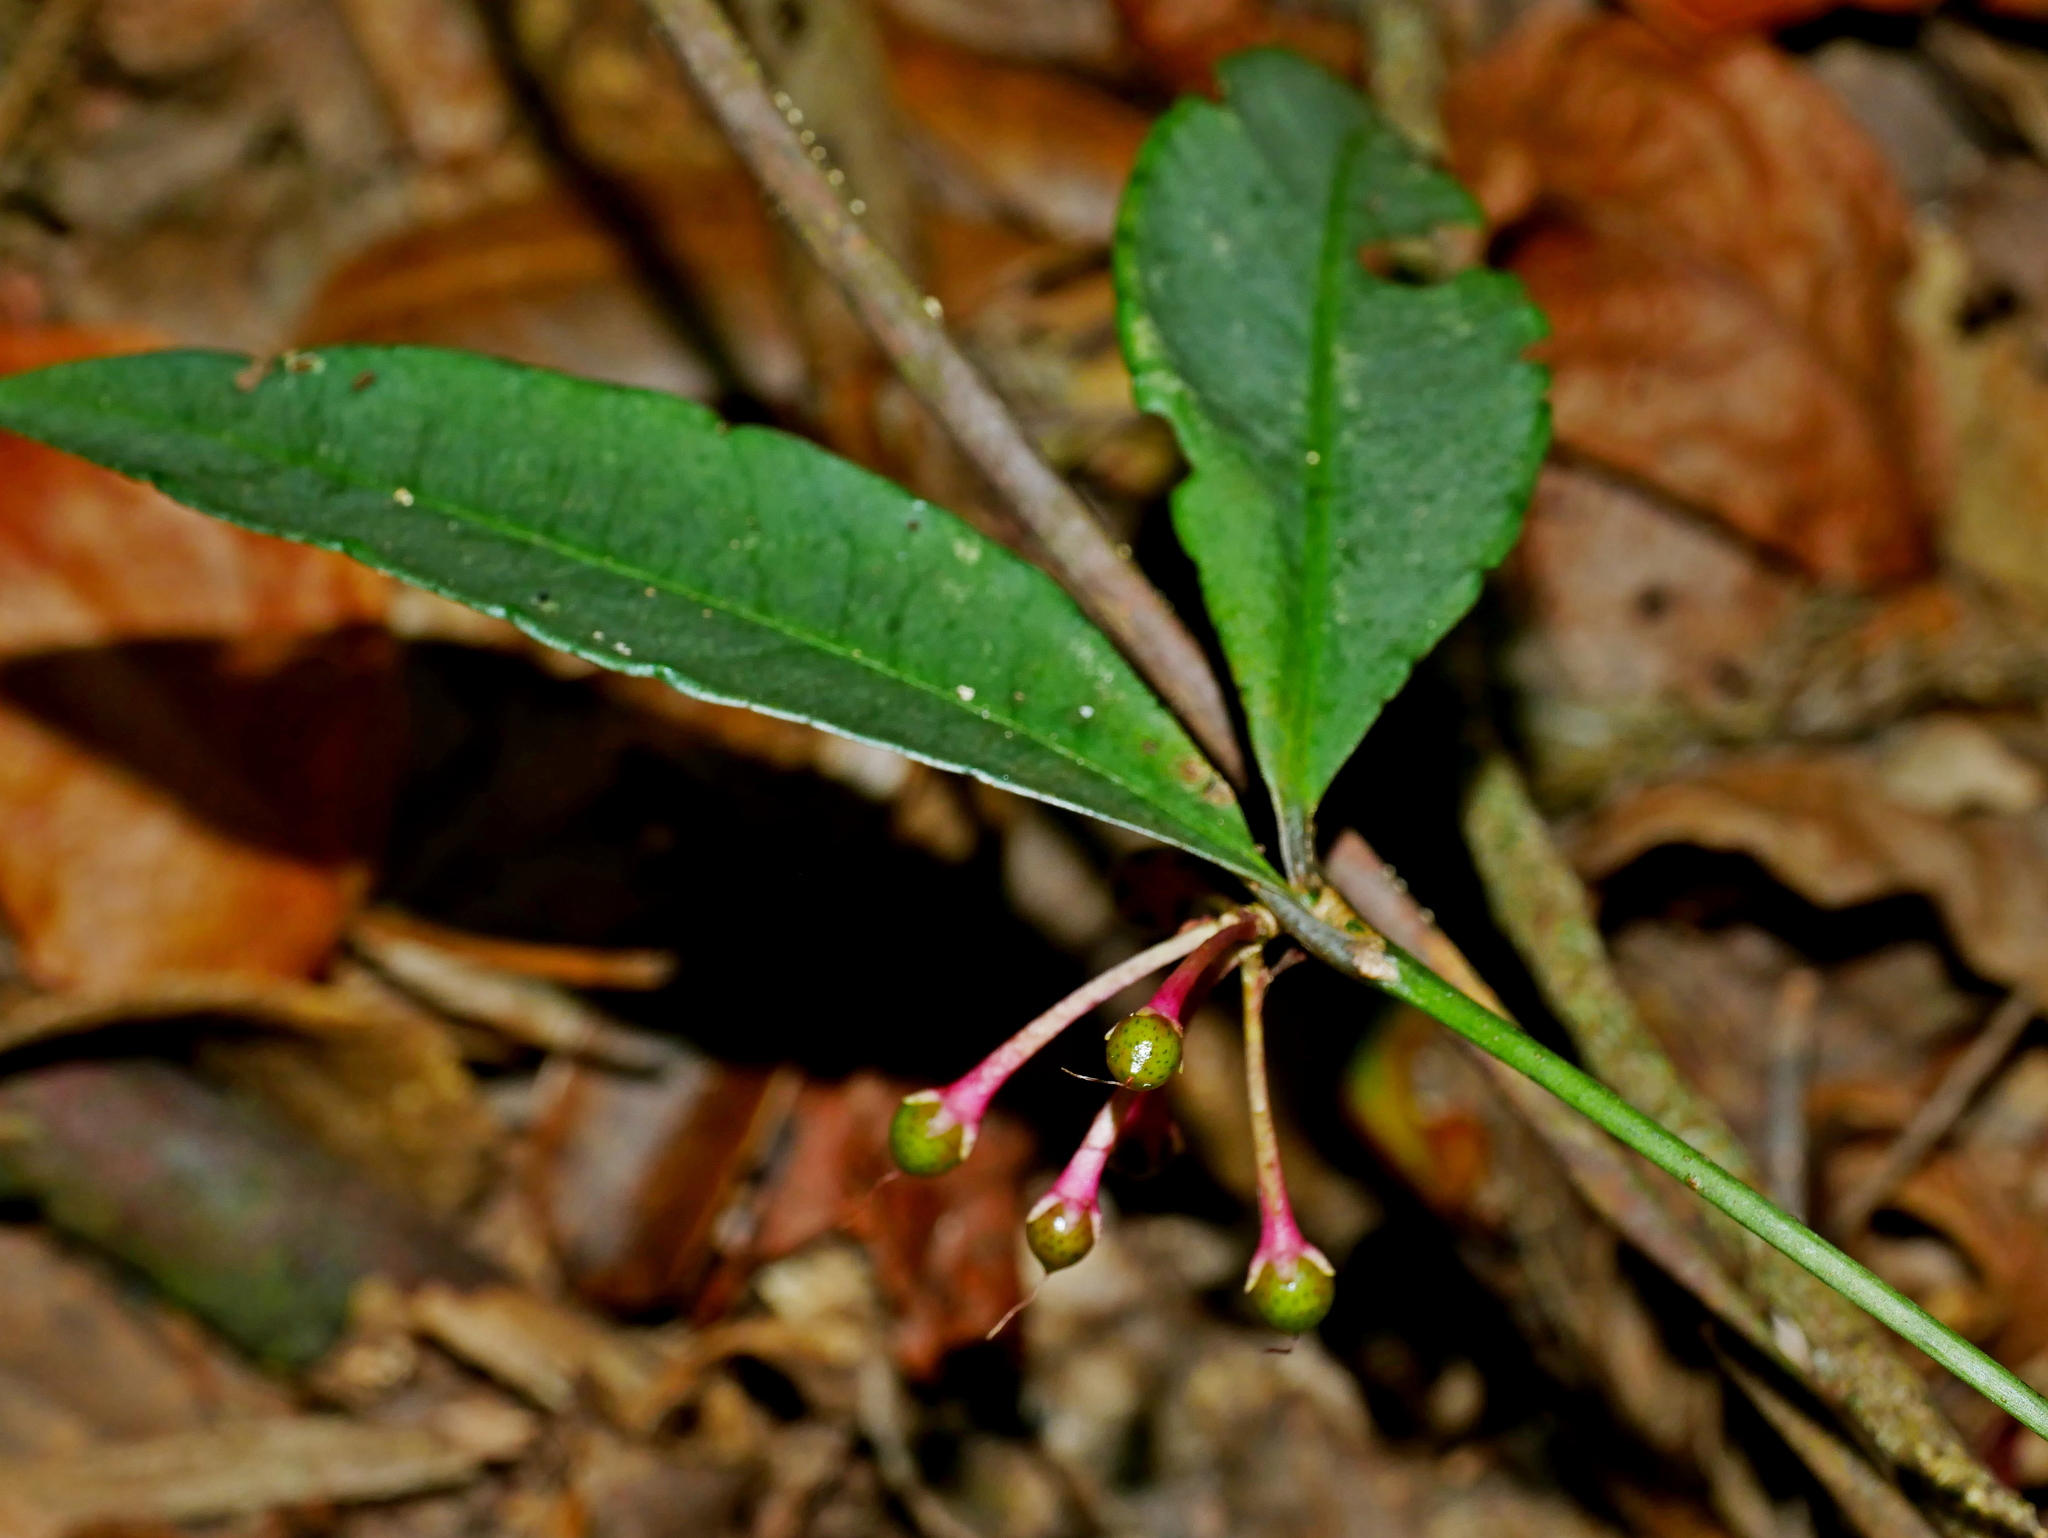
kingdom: Plantae
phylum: Tracheophyta
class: Magnoliopsida
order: Ericales
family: Primulaceae
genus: Ardisia
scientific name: Ardisia crenata
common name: Hen's eyes
